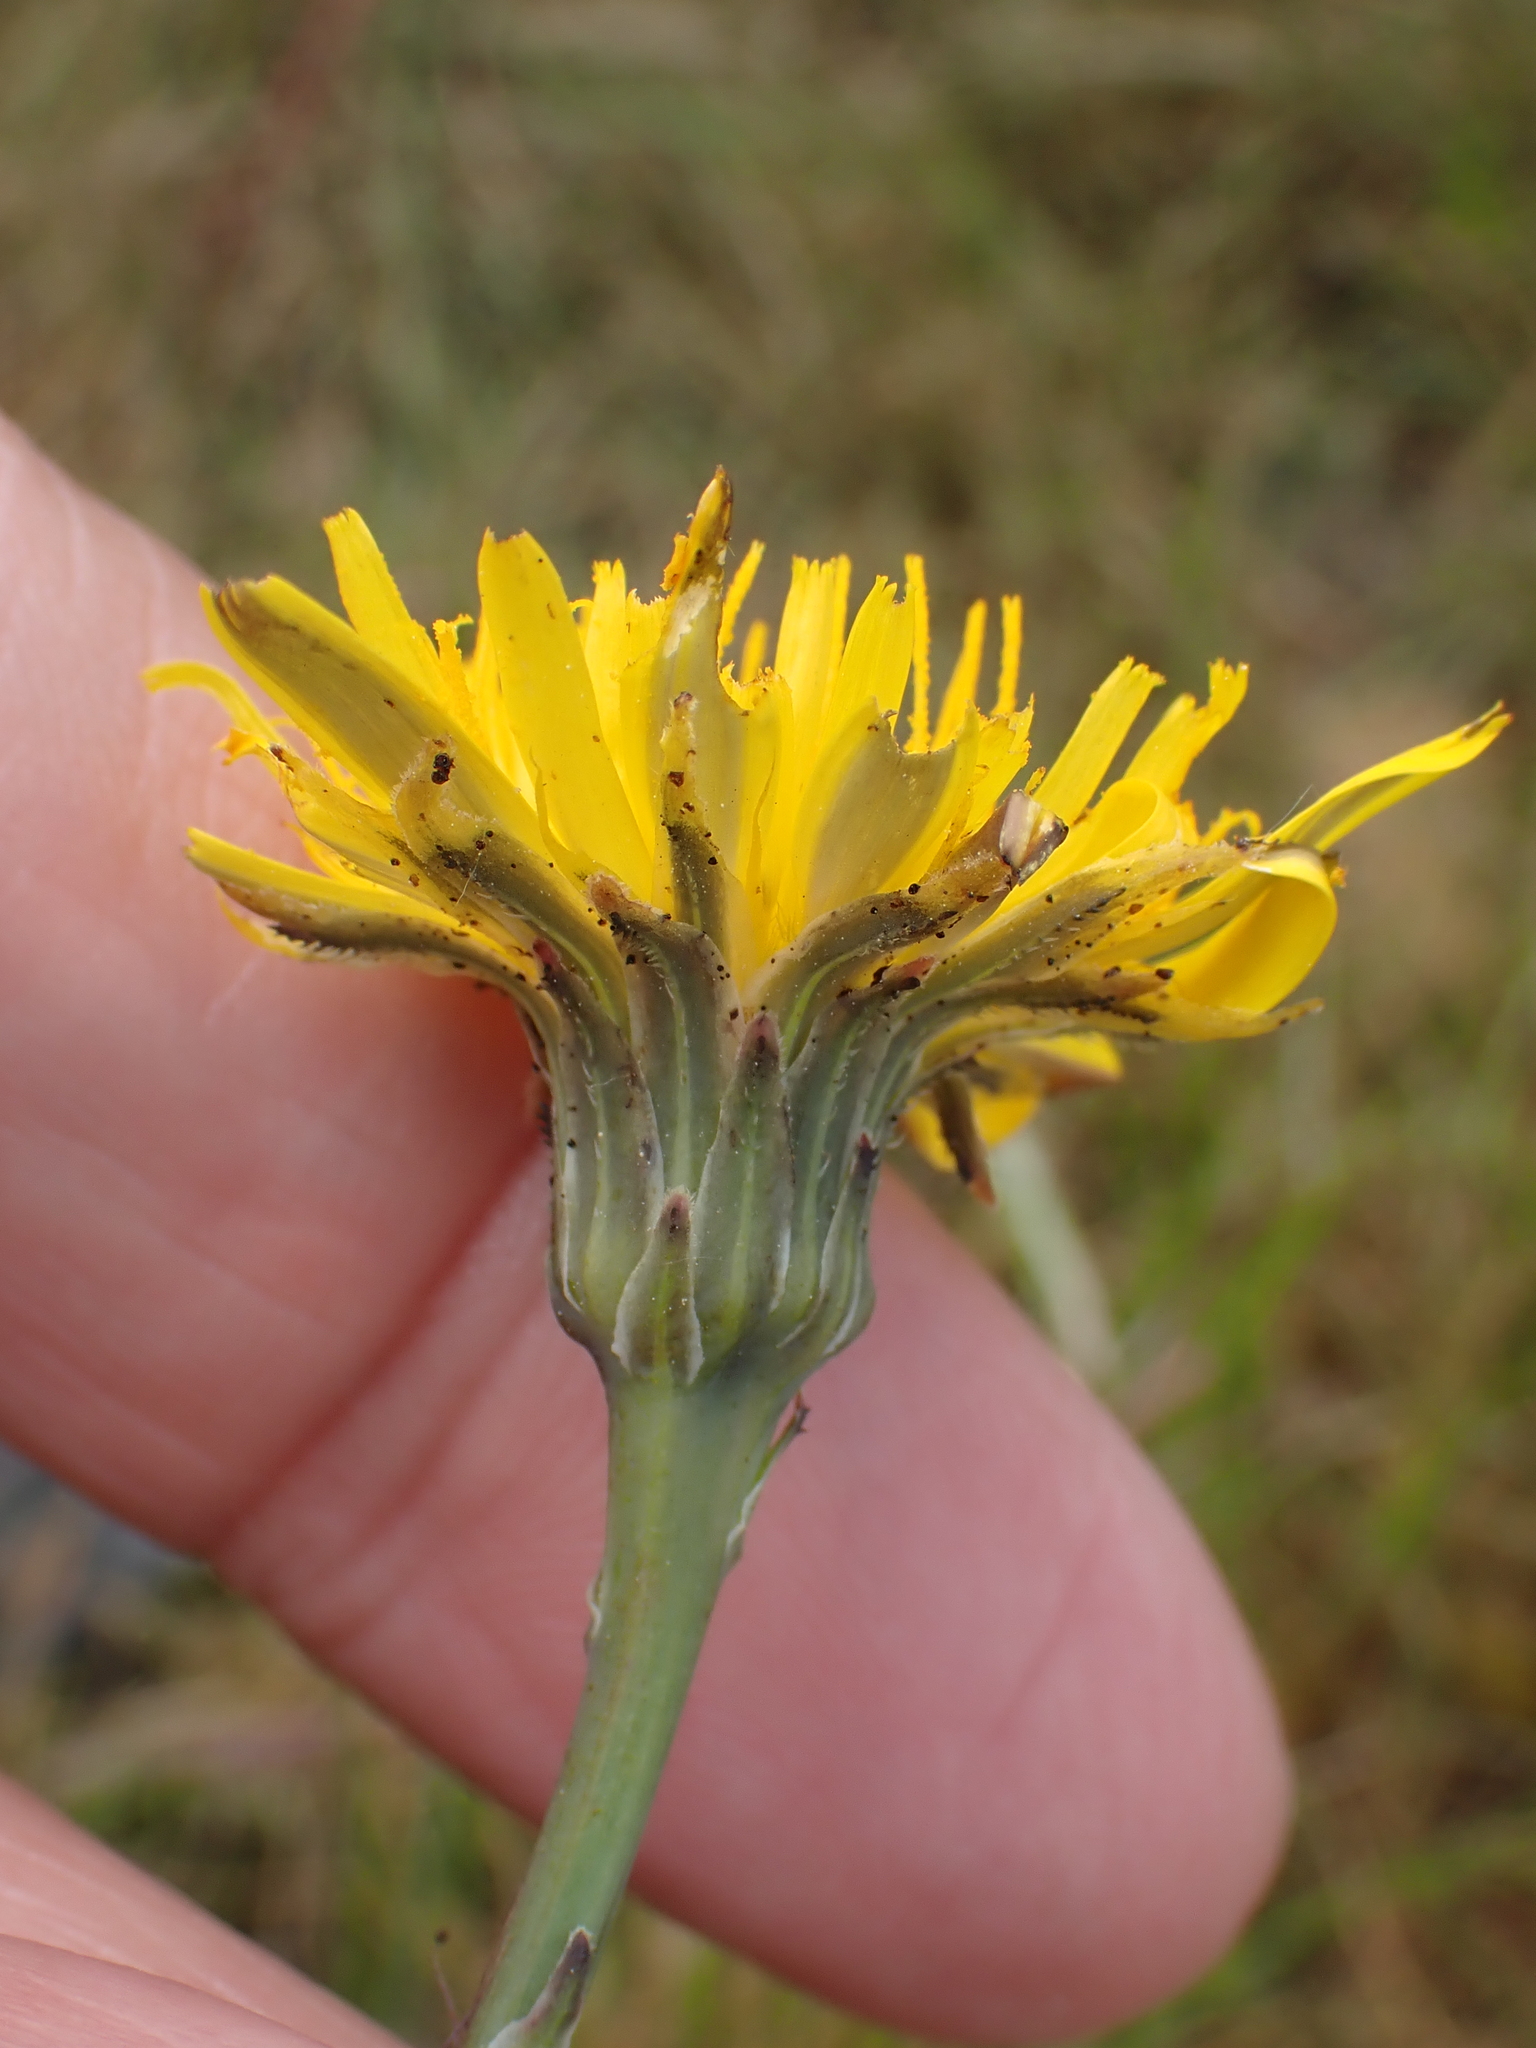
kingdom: Plantae
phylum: Tracheophyta
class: Magnoliopsida
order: Asterales
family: Asteraceae
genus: Hypochaeris
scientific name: Hypochaeris radicata
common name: Flatweed
